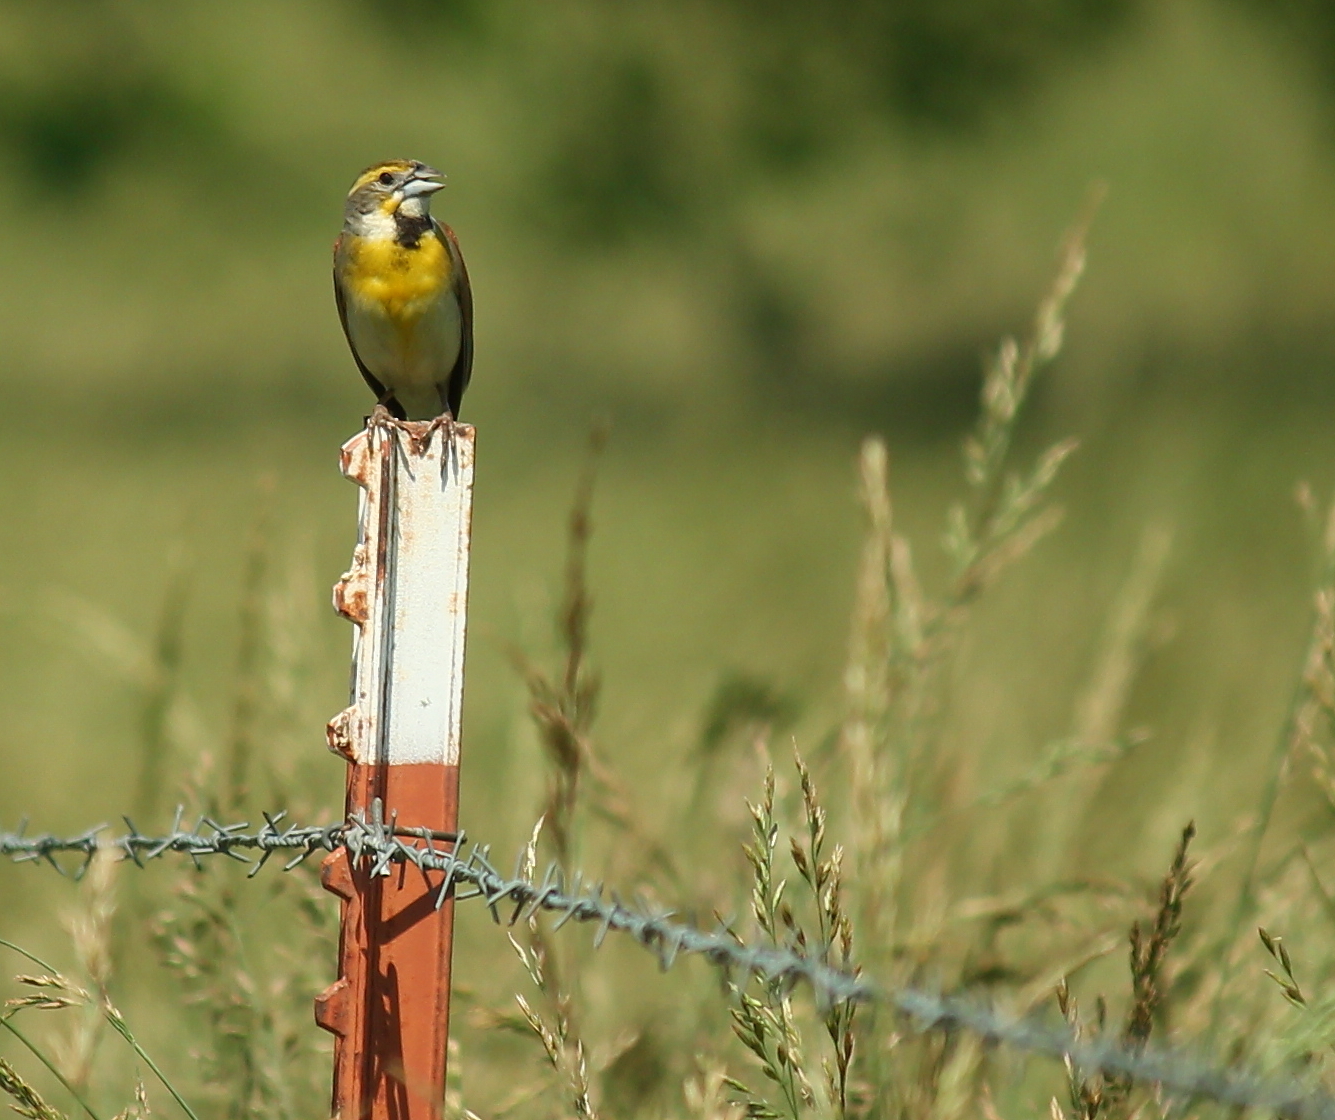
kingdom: Animalia
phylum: Chordata
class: Aves
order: Passeriformes
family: Cardinalidae
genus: Spiza
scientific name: Spiza americana
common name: Dickcissel
